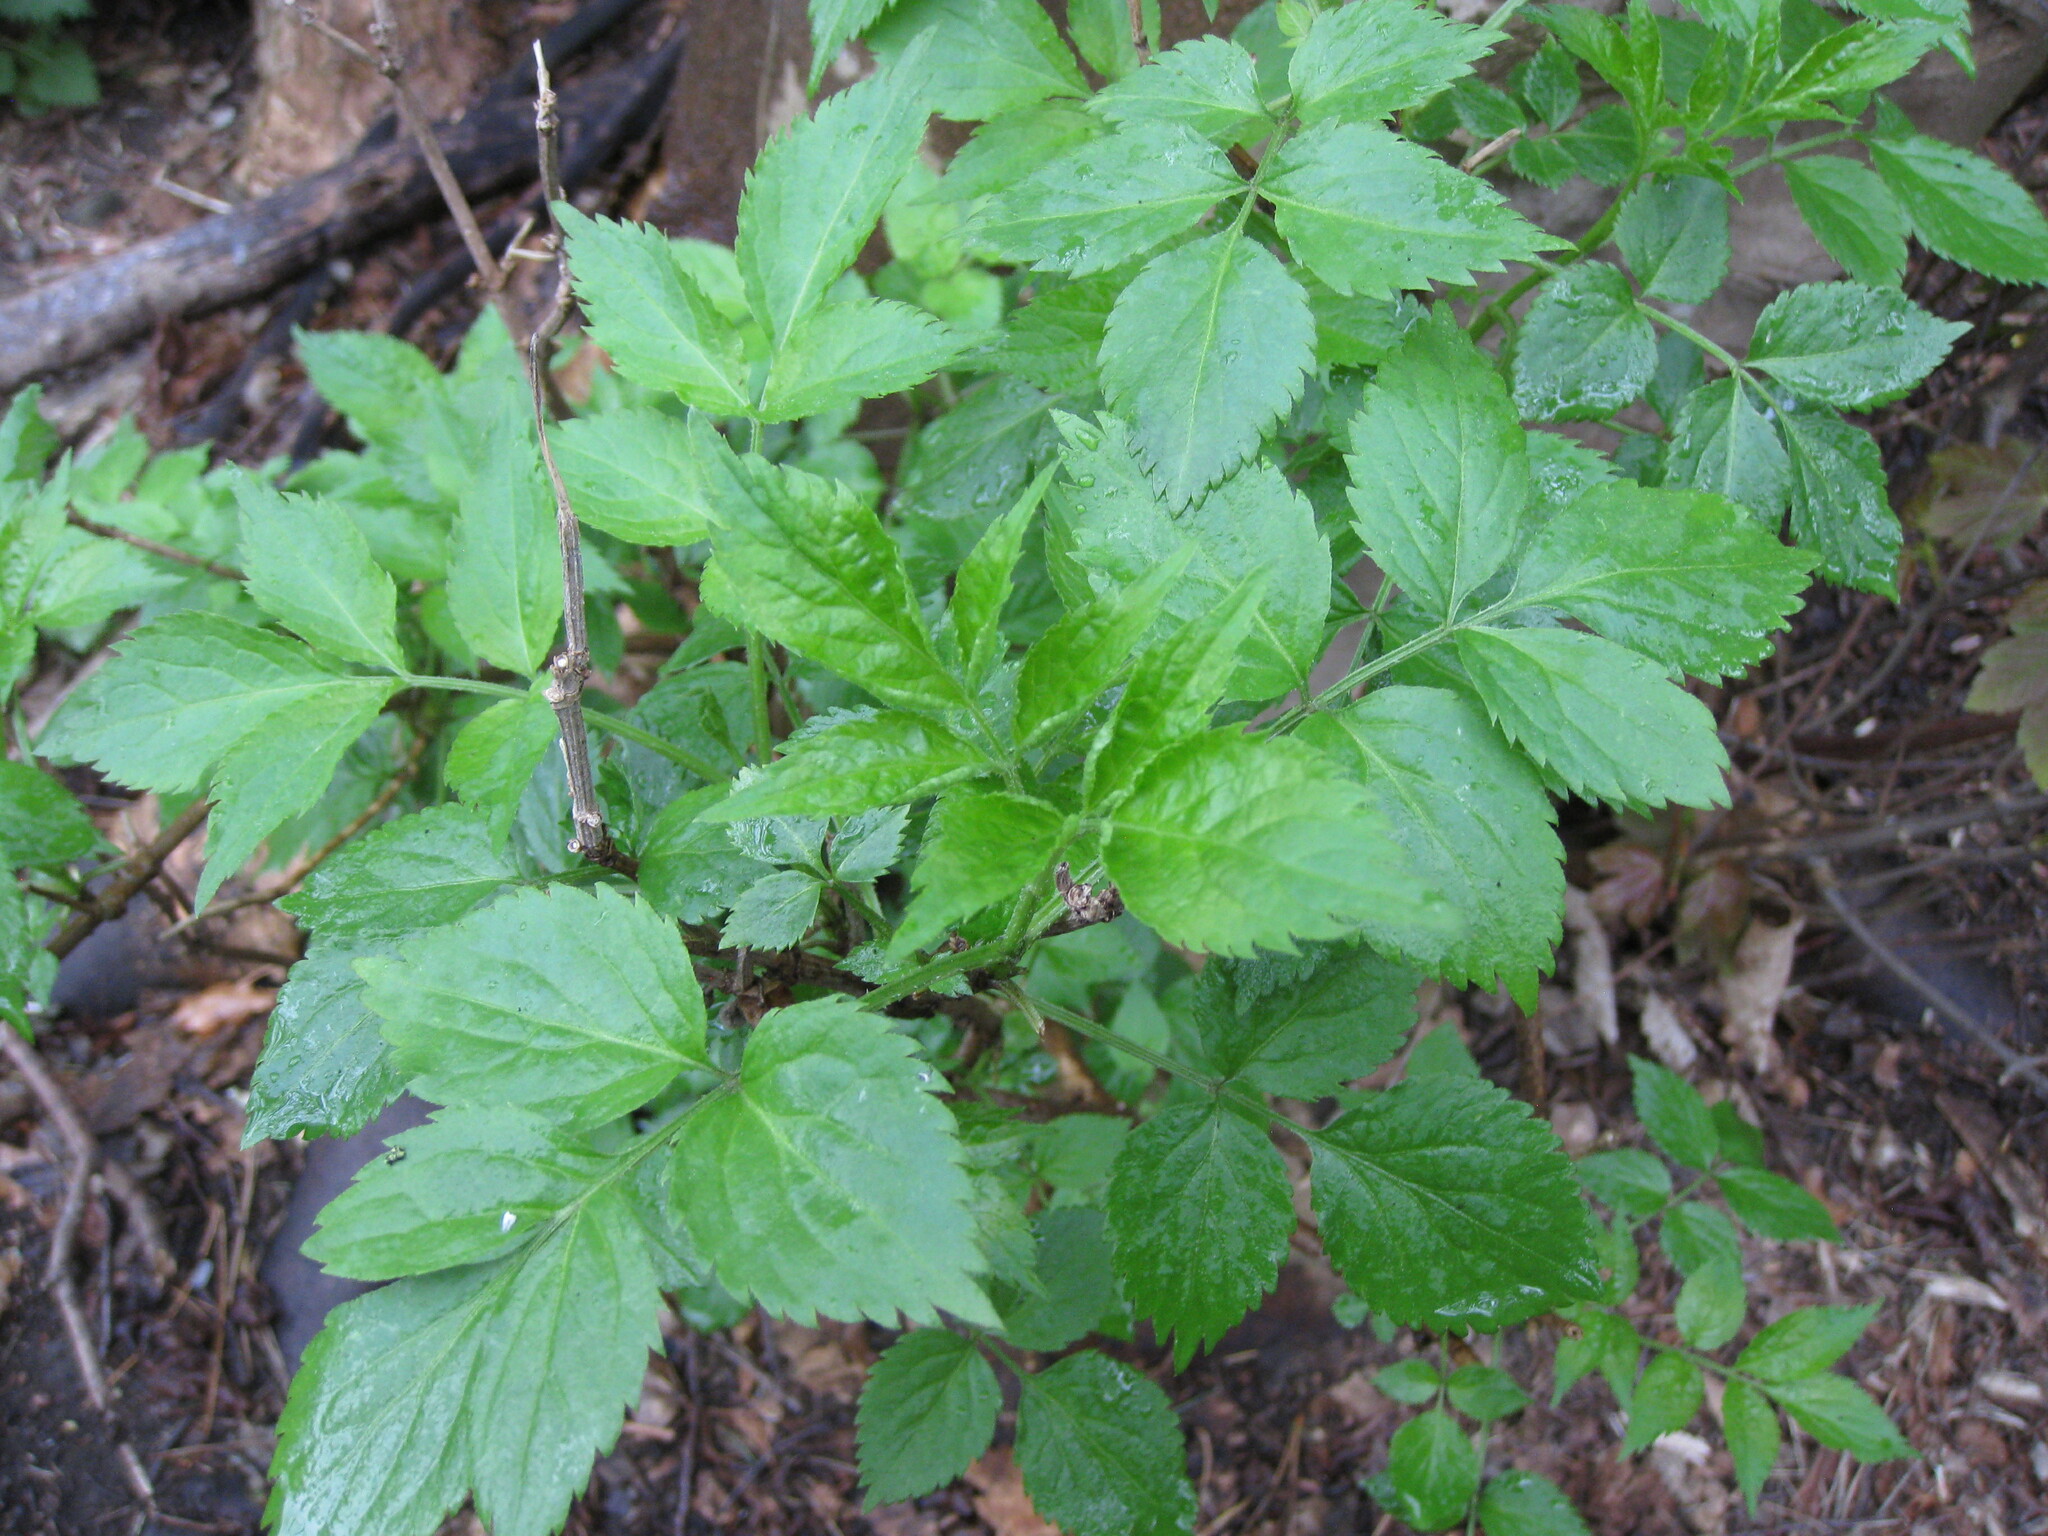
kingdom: Plantae
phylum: Tracheophyta
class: Magnoliopsida
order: Dipsacales
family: Viburnaceae
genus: Sambucus
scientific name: Sambucus nigra
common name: Elder
